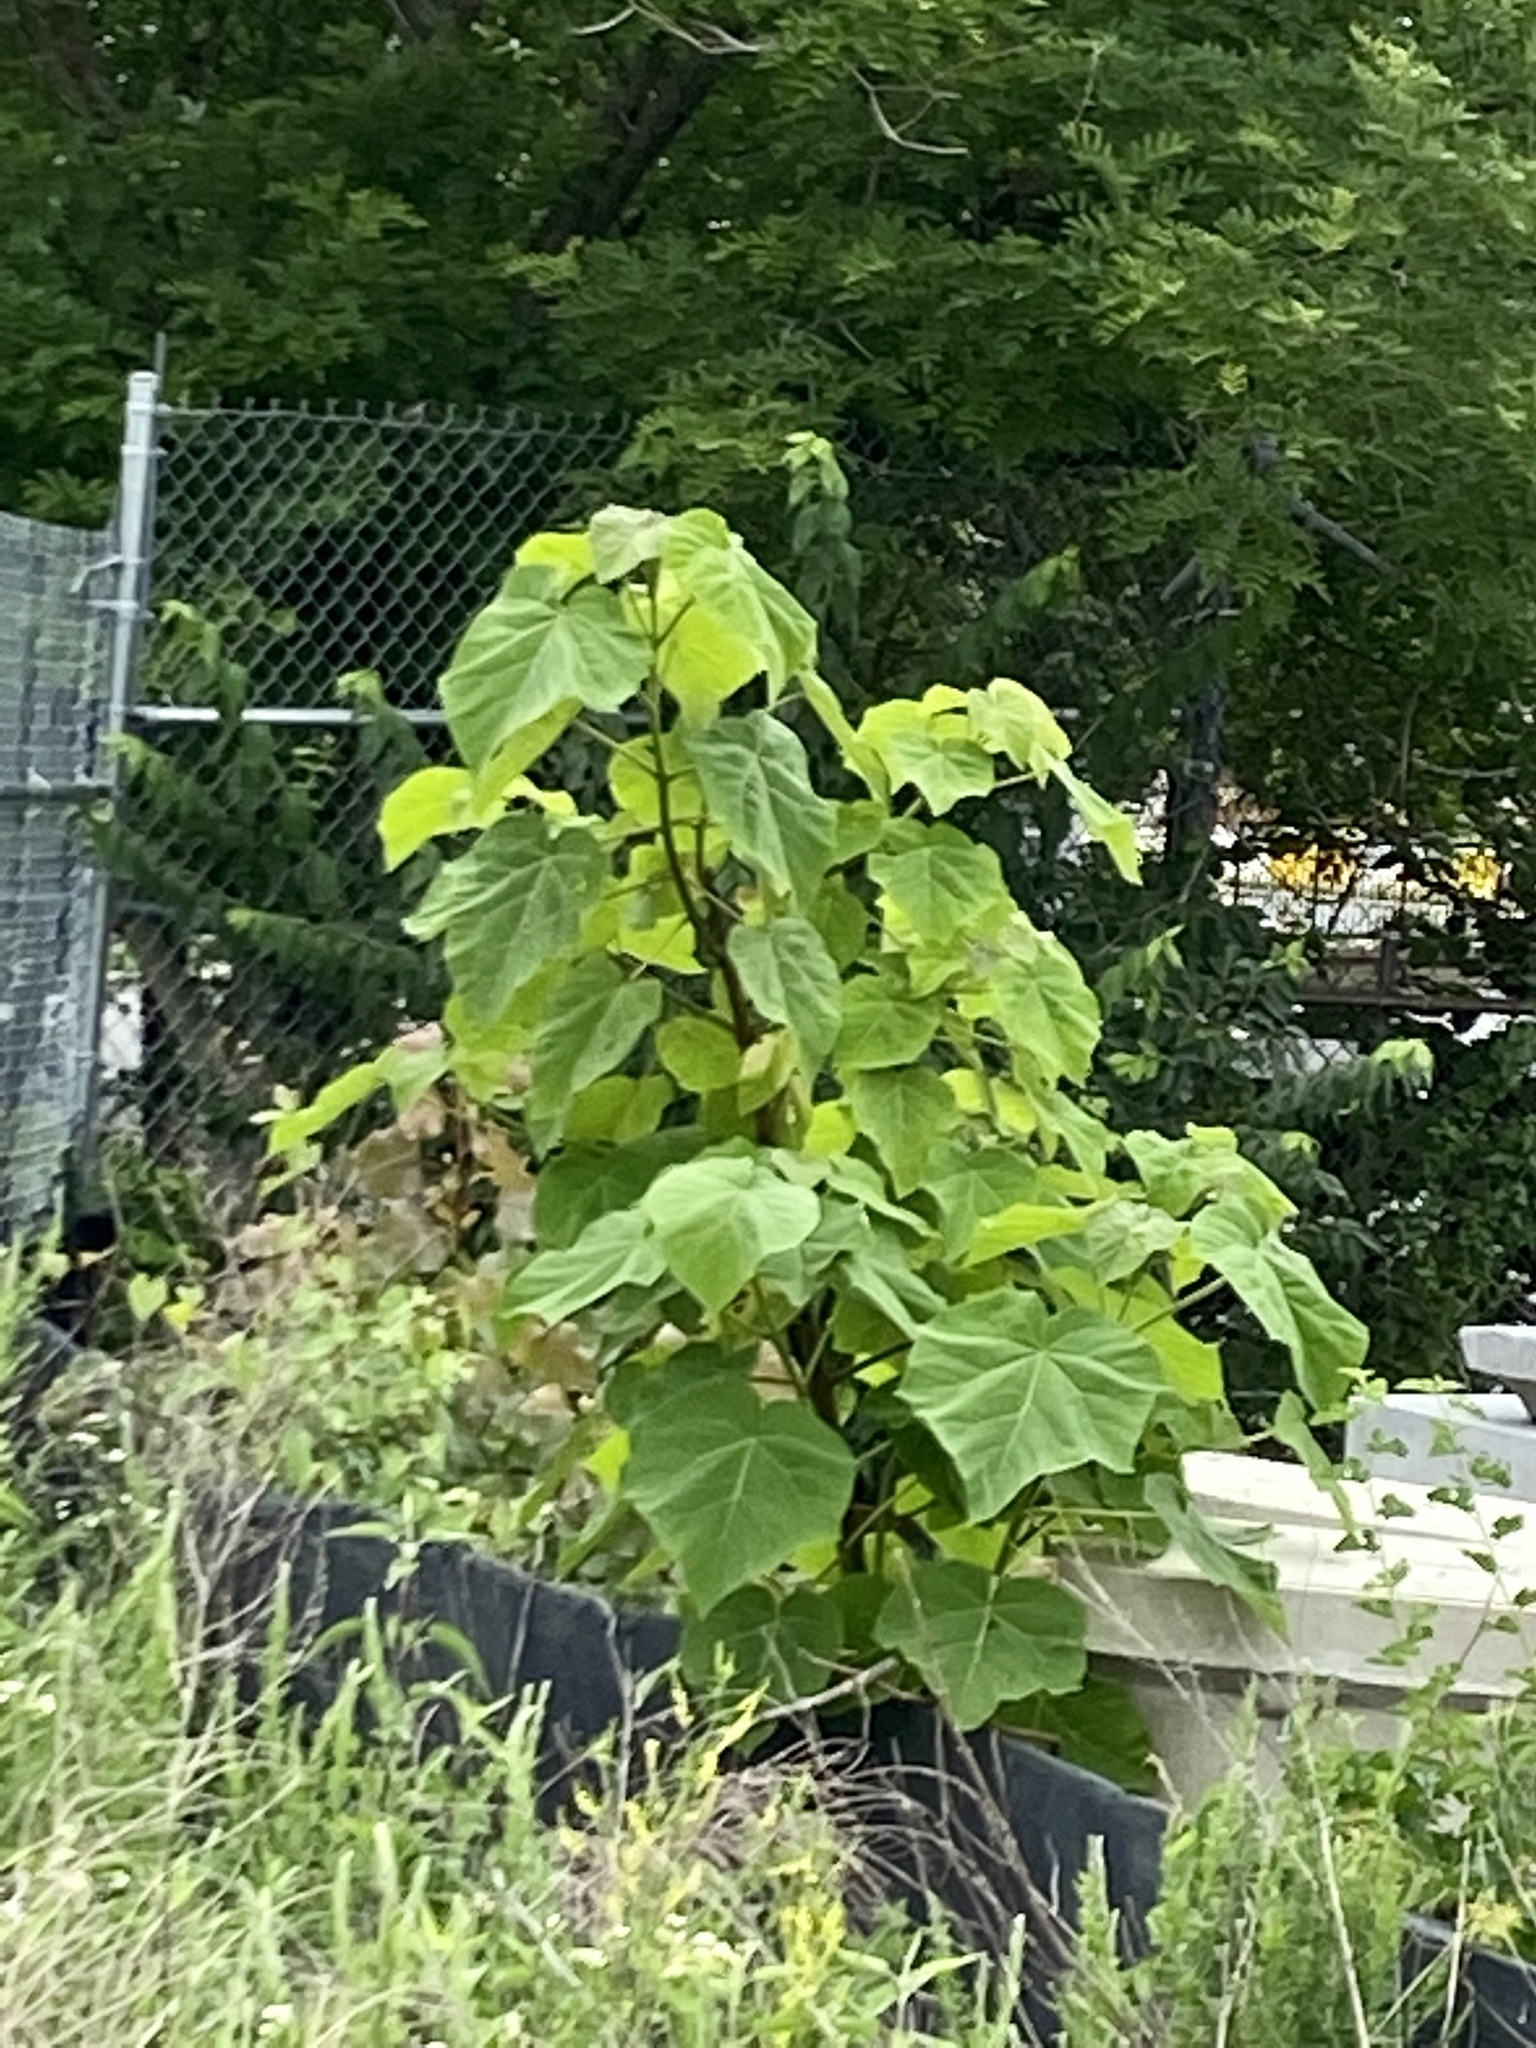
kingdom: Plantae
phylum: Tracheophyta
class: Magnoliopsida
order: Lamiales
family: Paulowniaceae
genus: Paulownia
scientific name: Paulownia tomentosa
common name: Foxglove-tree
